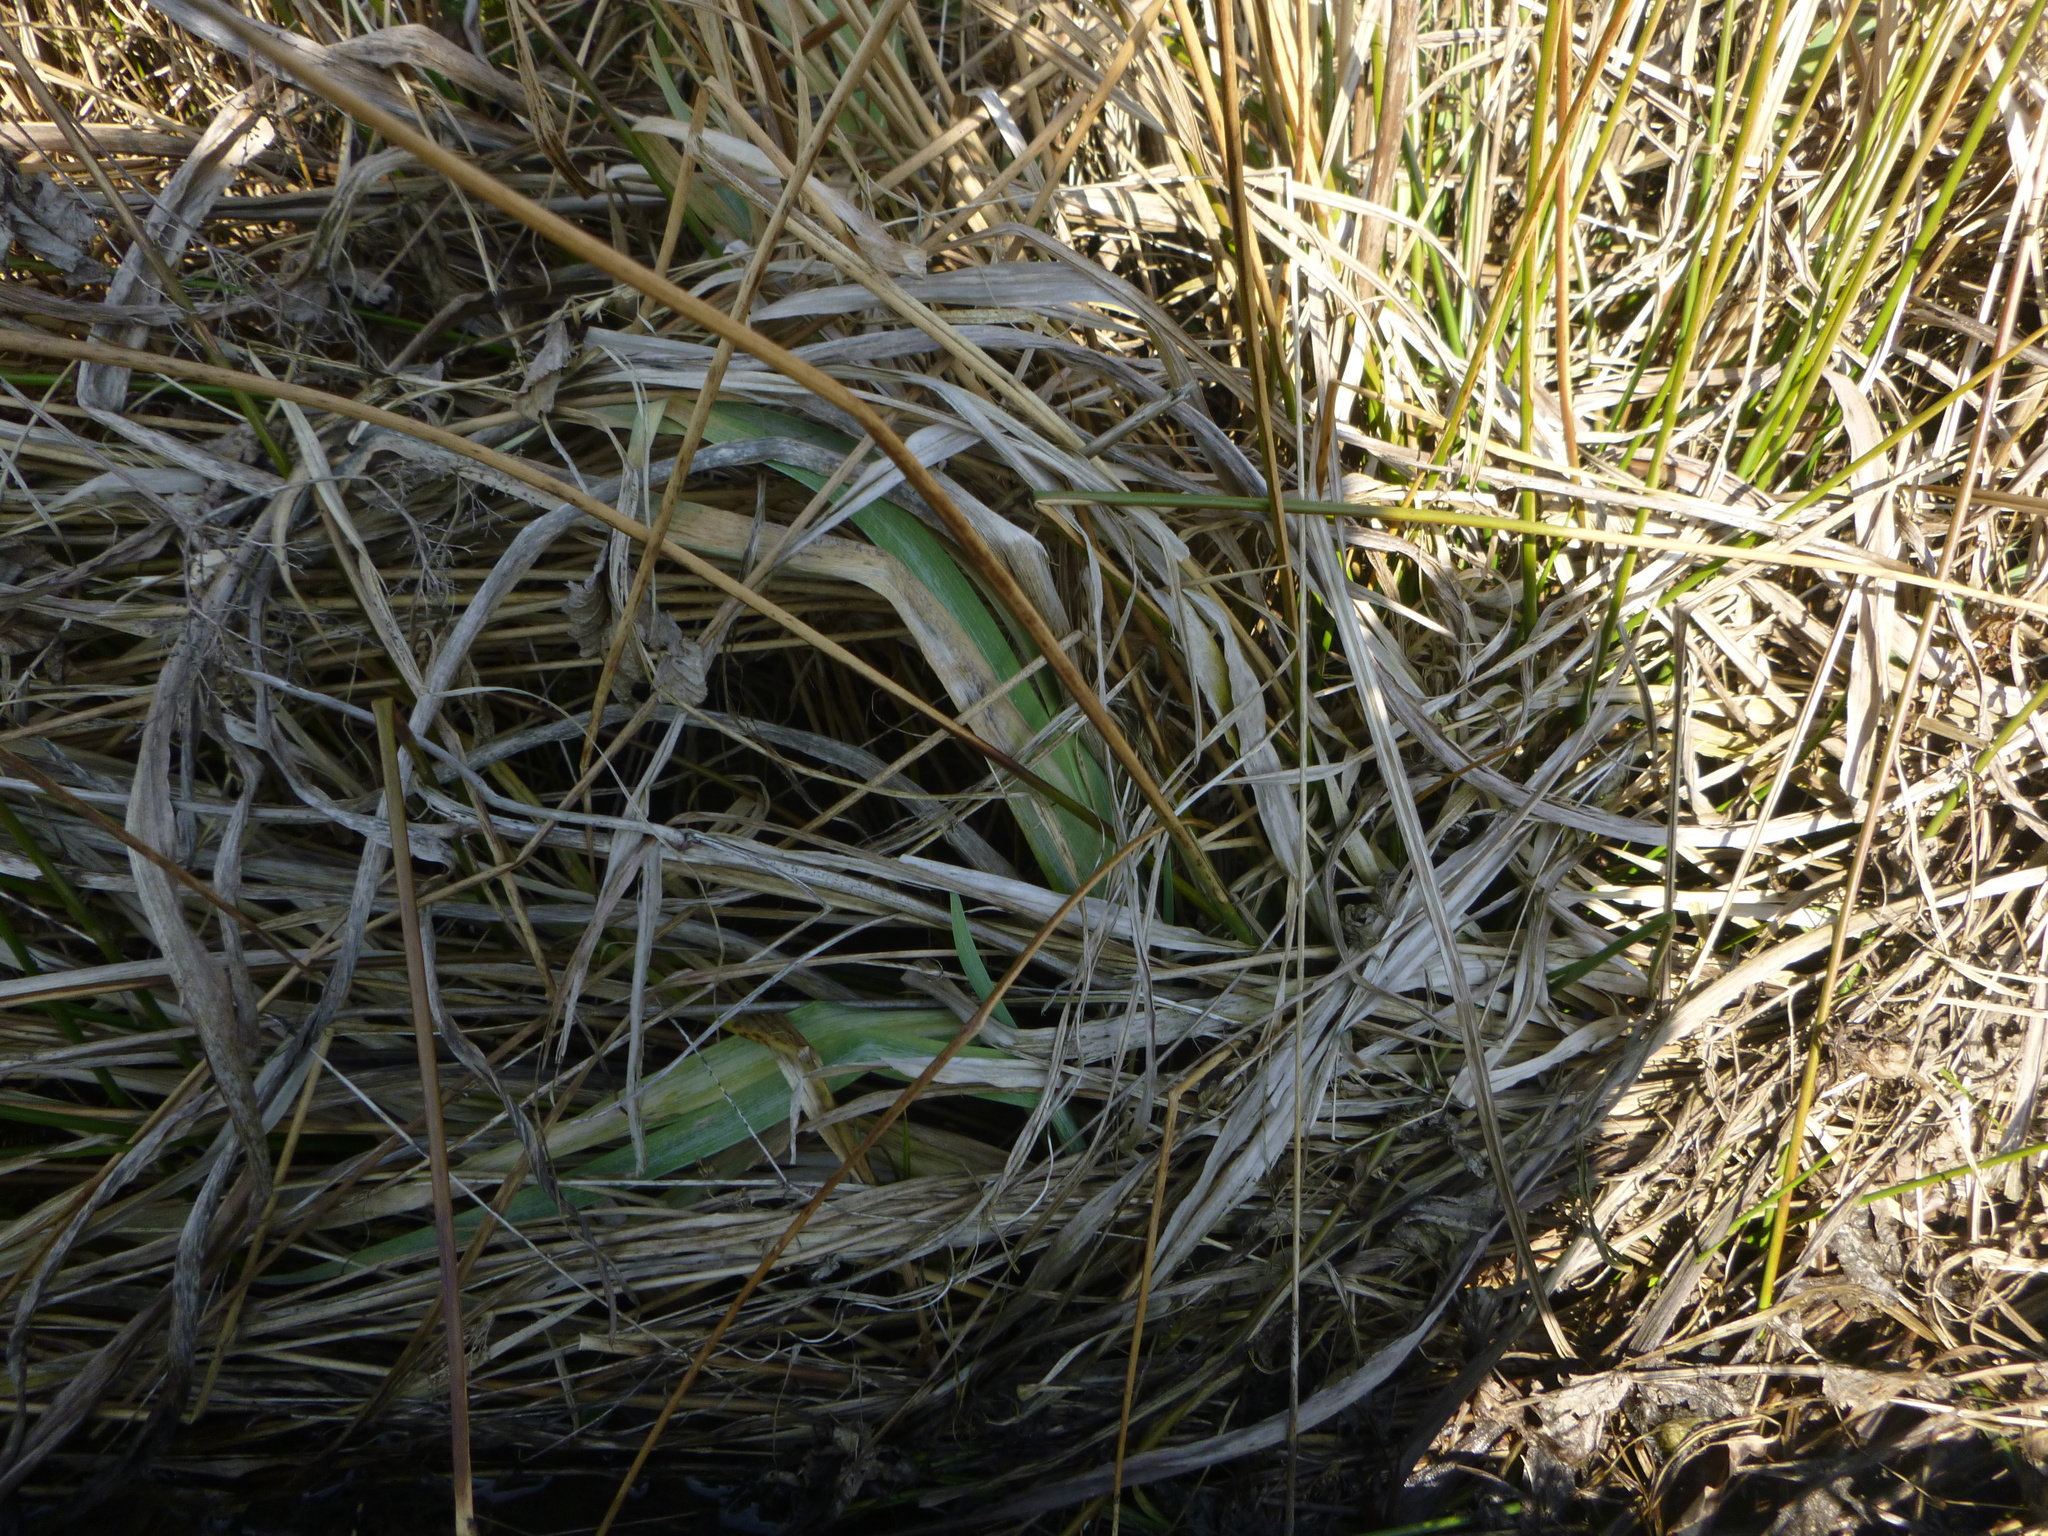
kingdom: Plantae
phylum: Tracheophyta
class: Liliopsida
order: Asparagales
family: Iridaceae
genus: Iris
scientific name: Iris pseudacorus
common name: Yellow flag
